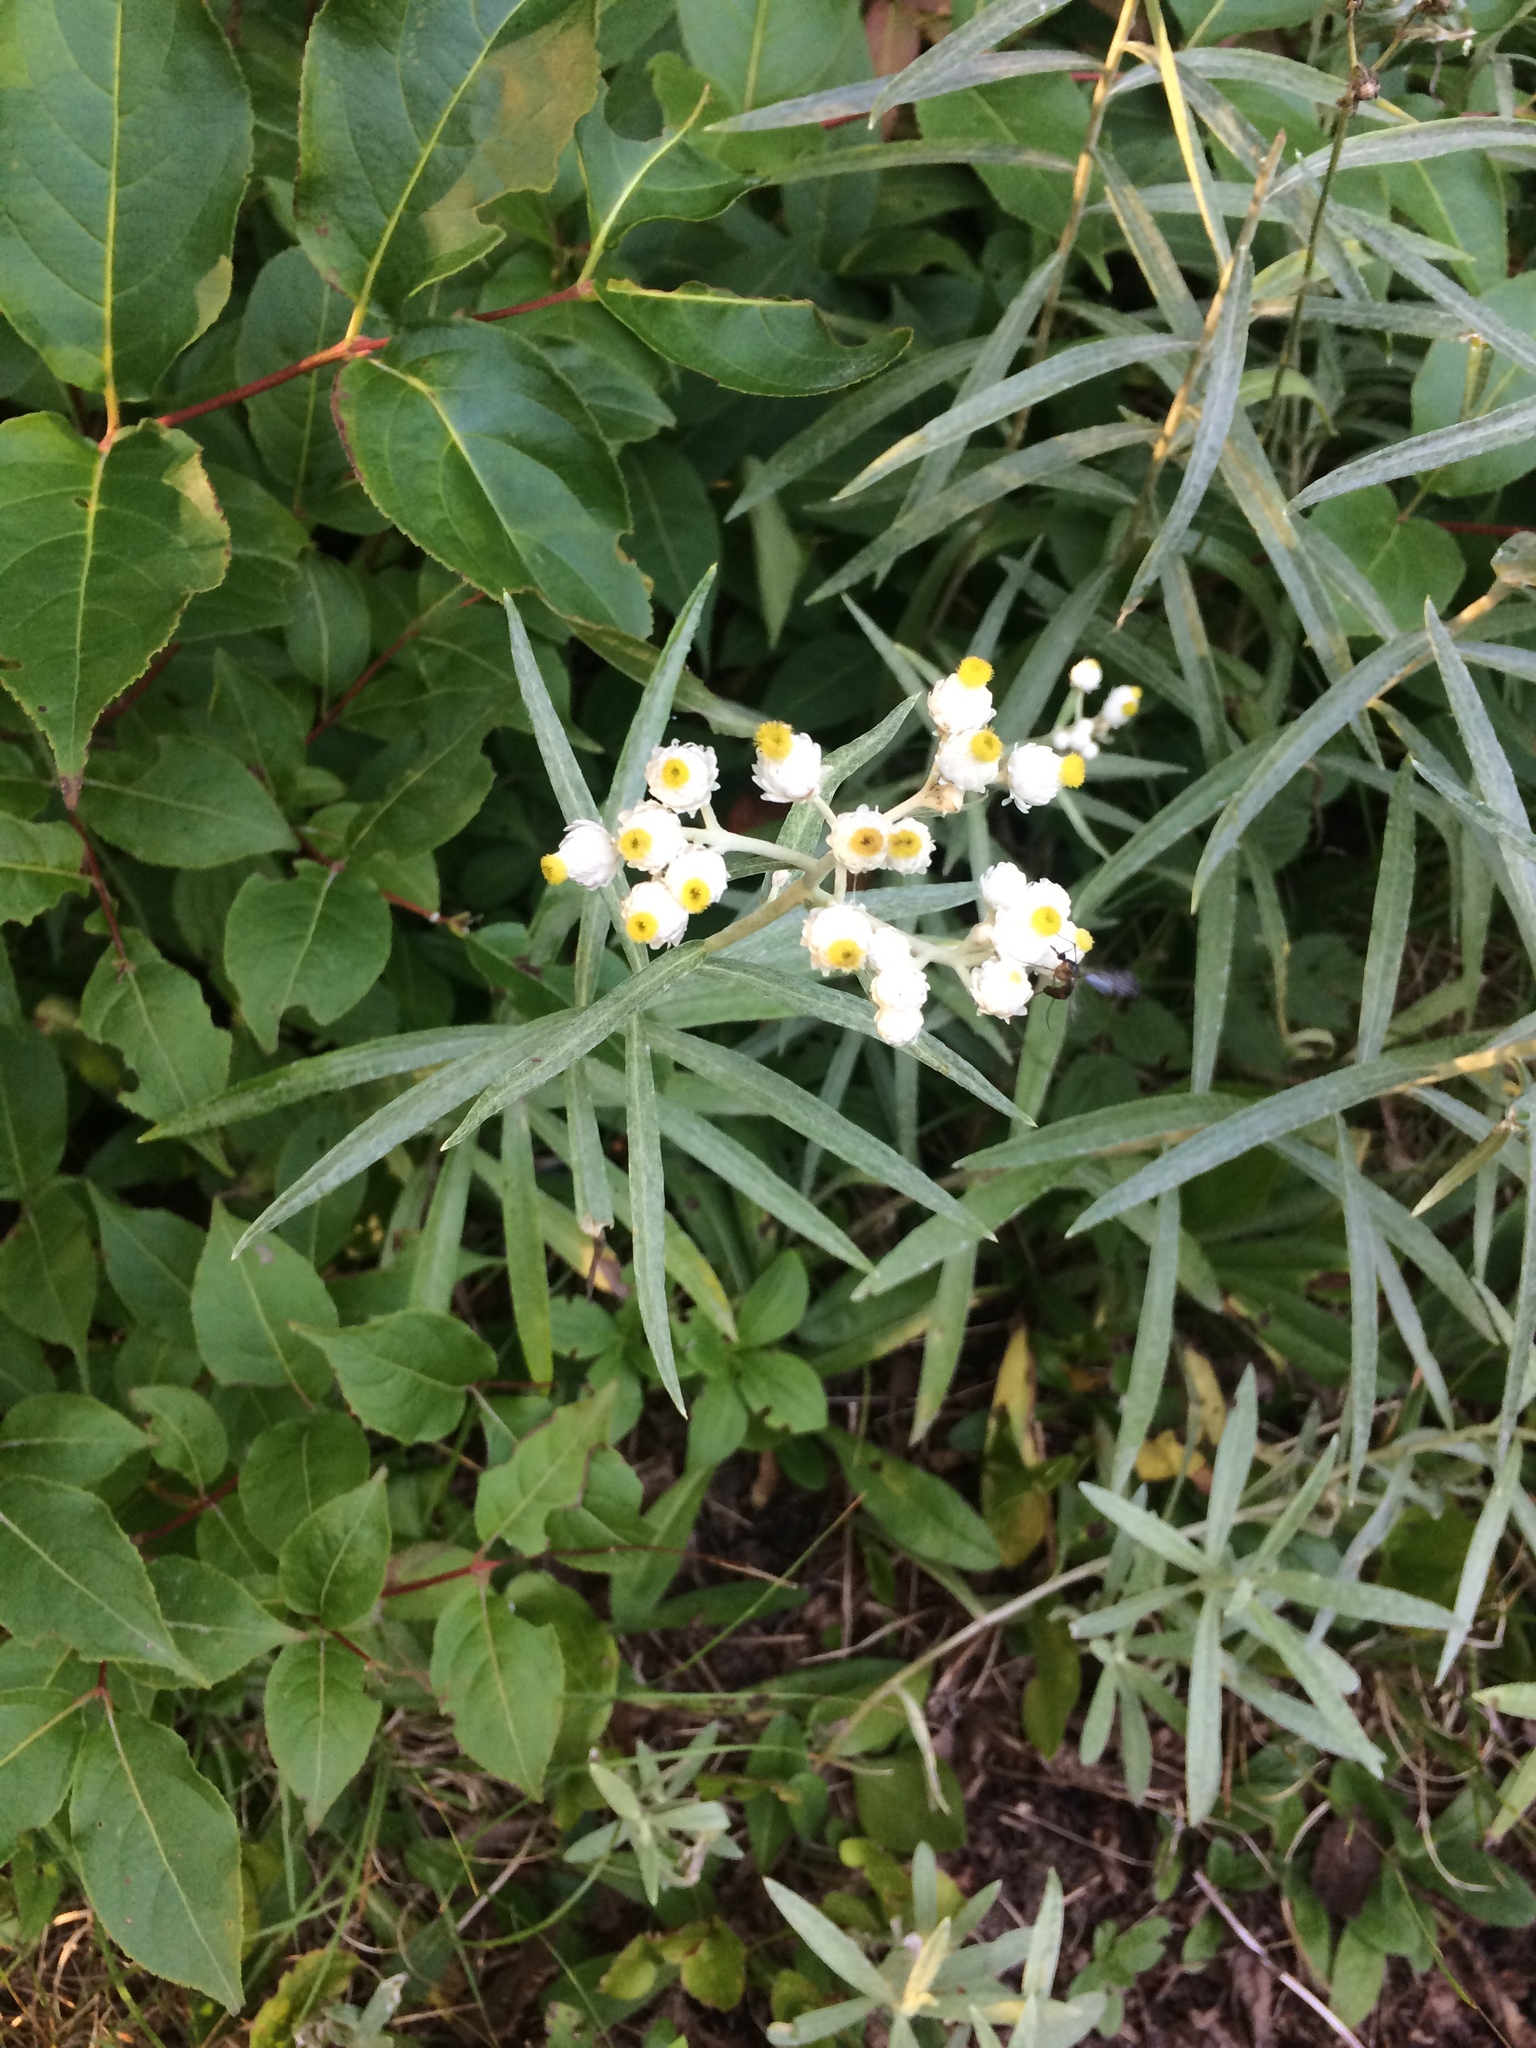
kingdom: Plantae
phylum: Tracheophyta
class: Magnoliopsida
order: Asterales
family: Asteraceae
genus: Anaphalis
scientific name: Anaphalis margaritacea
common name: Pearly everlasting
